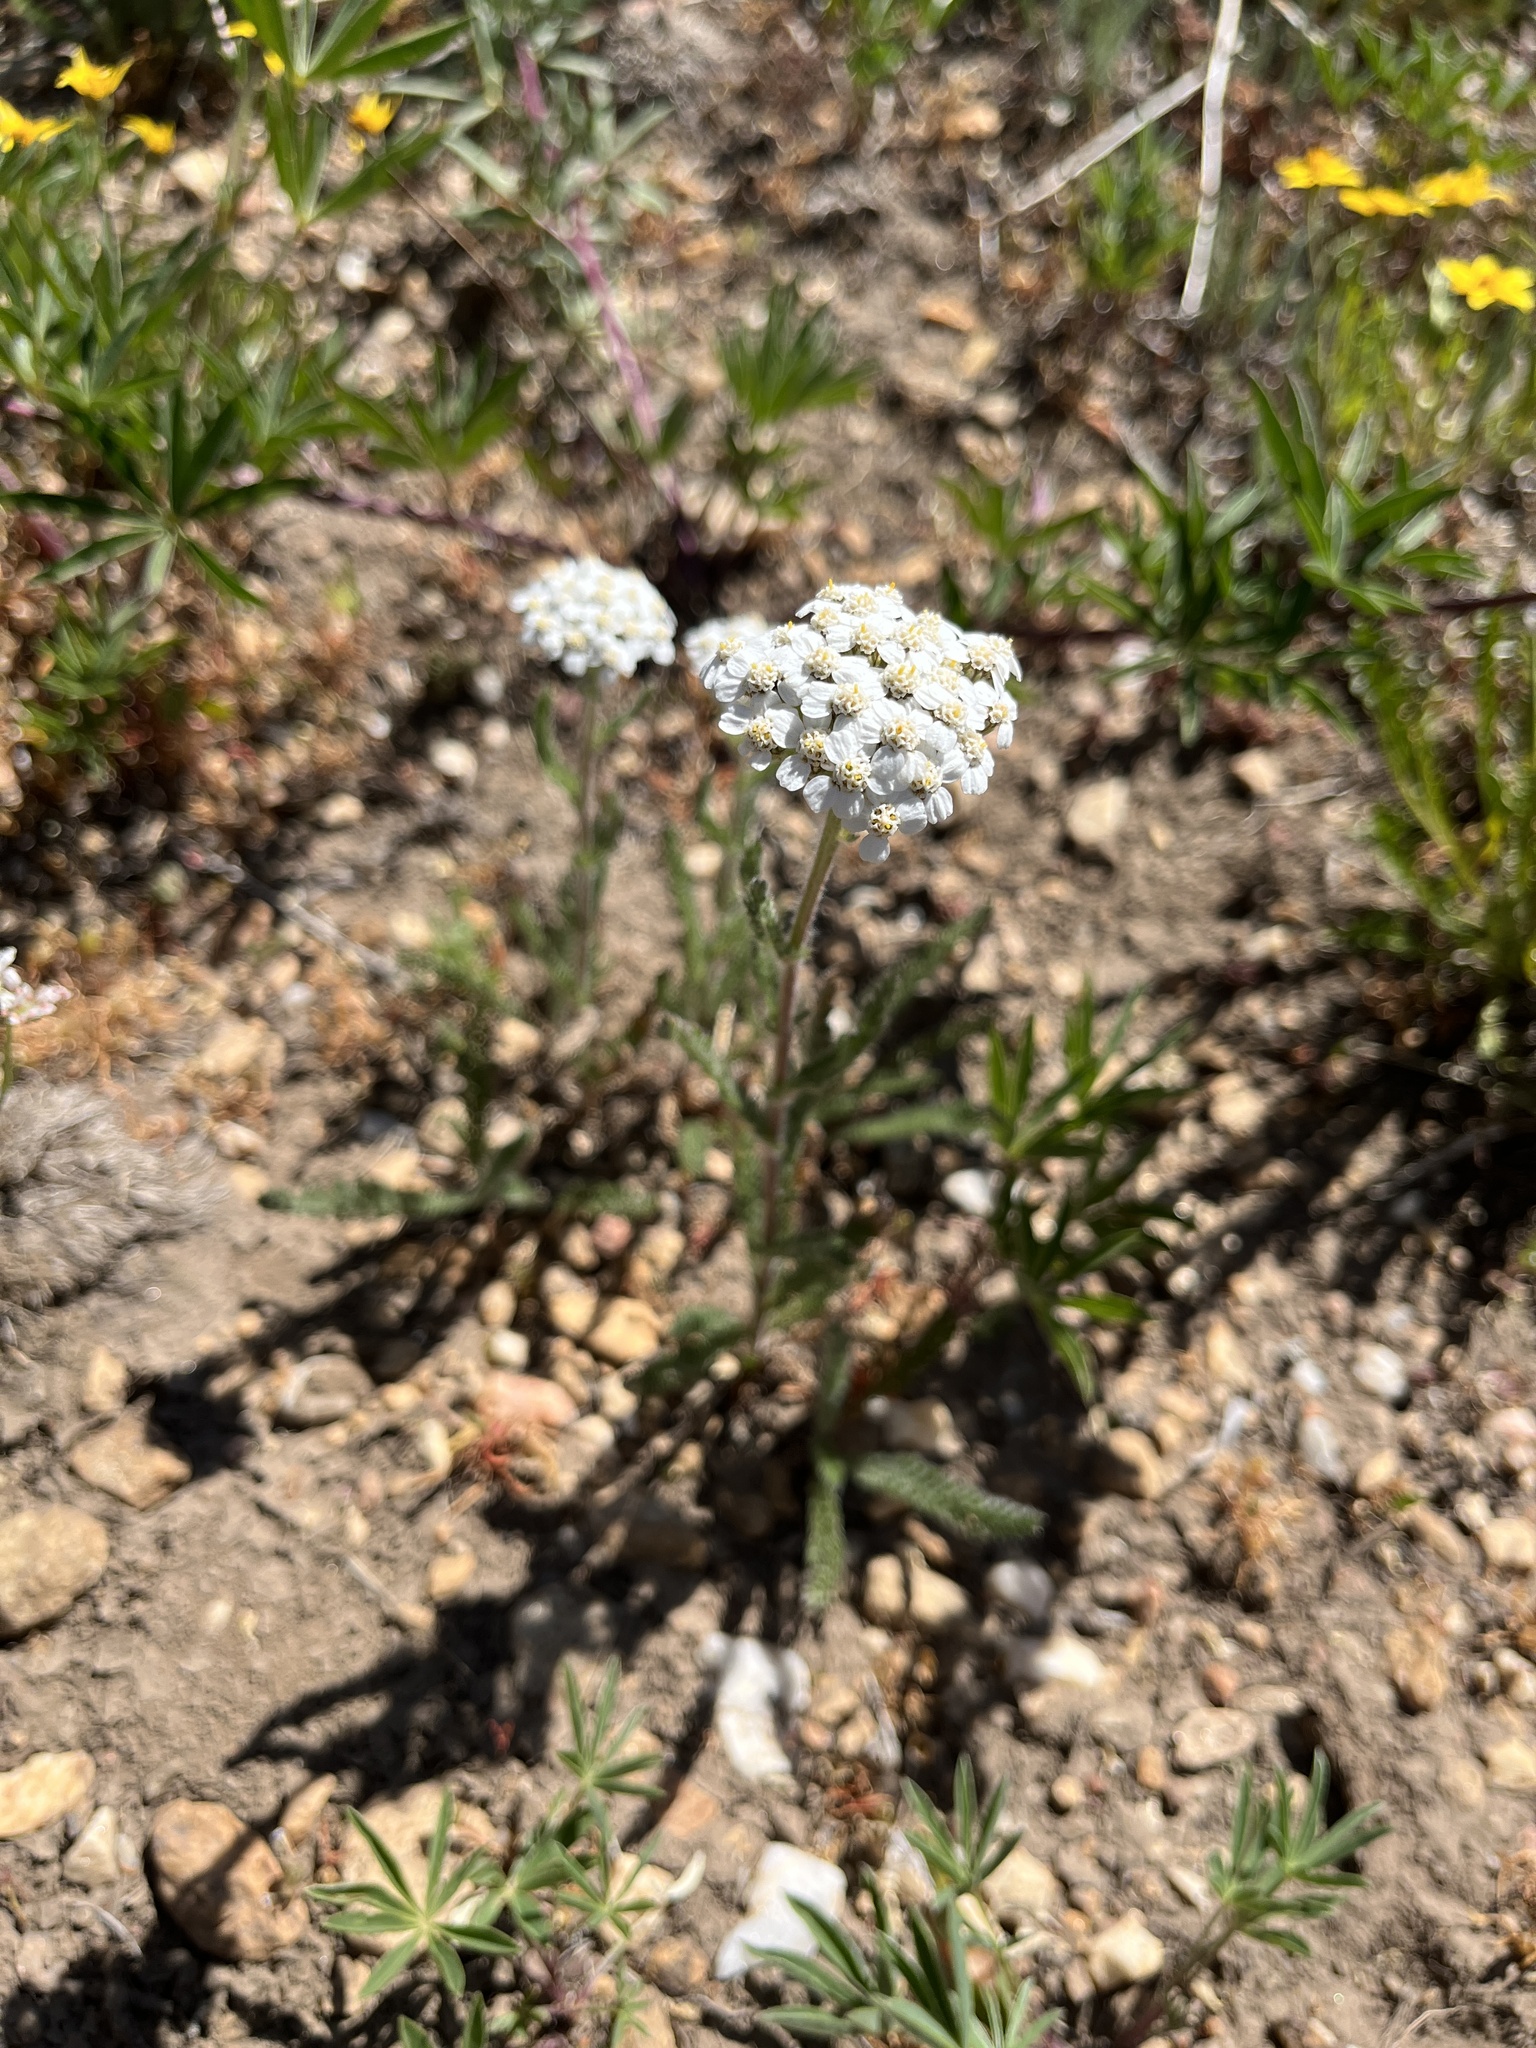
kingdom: Plantae
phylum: Tracheophyta
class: Magnoliopsida
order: Asterales
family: Asteraceae
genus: Achillea
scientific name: Achillea millefolium
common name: Yarrow
